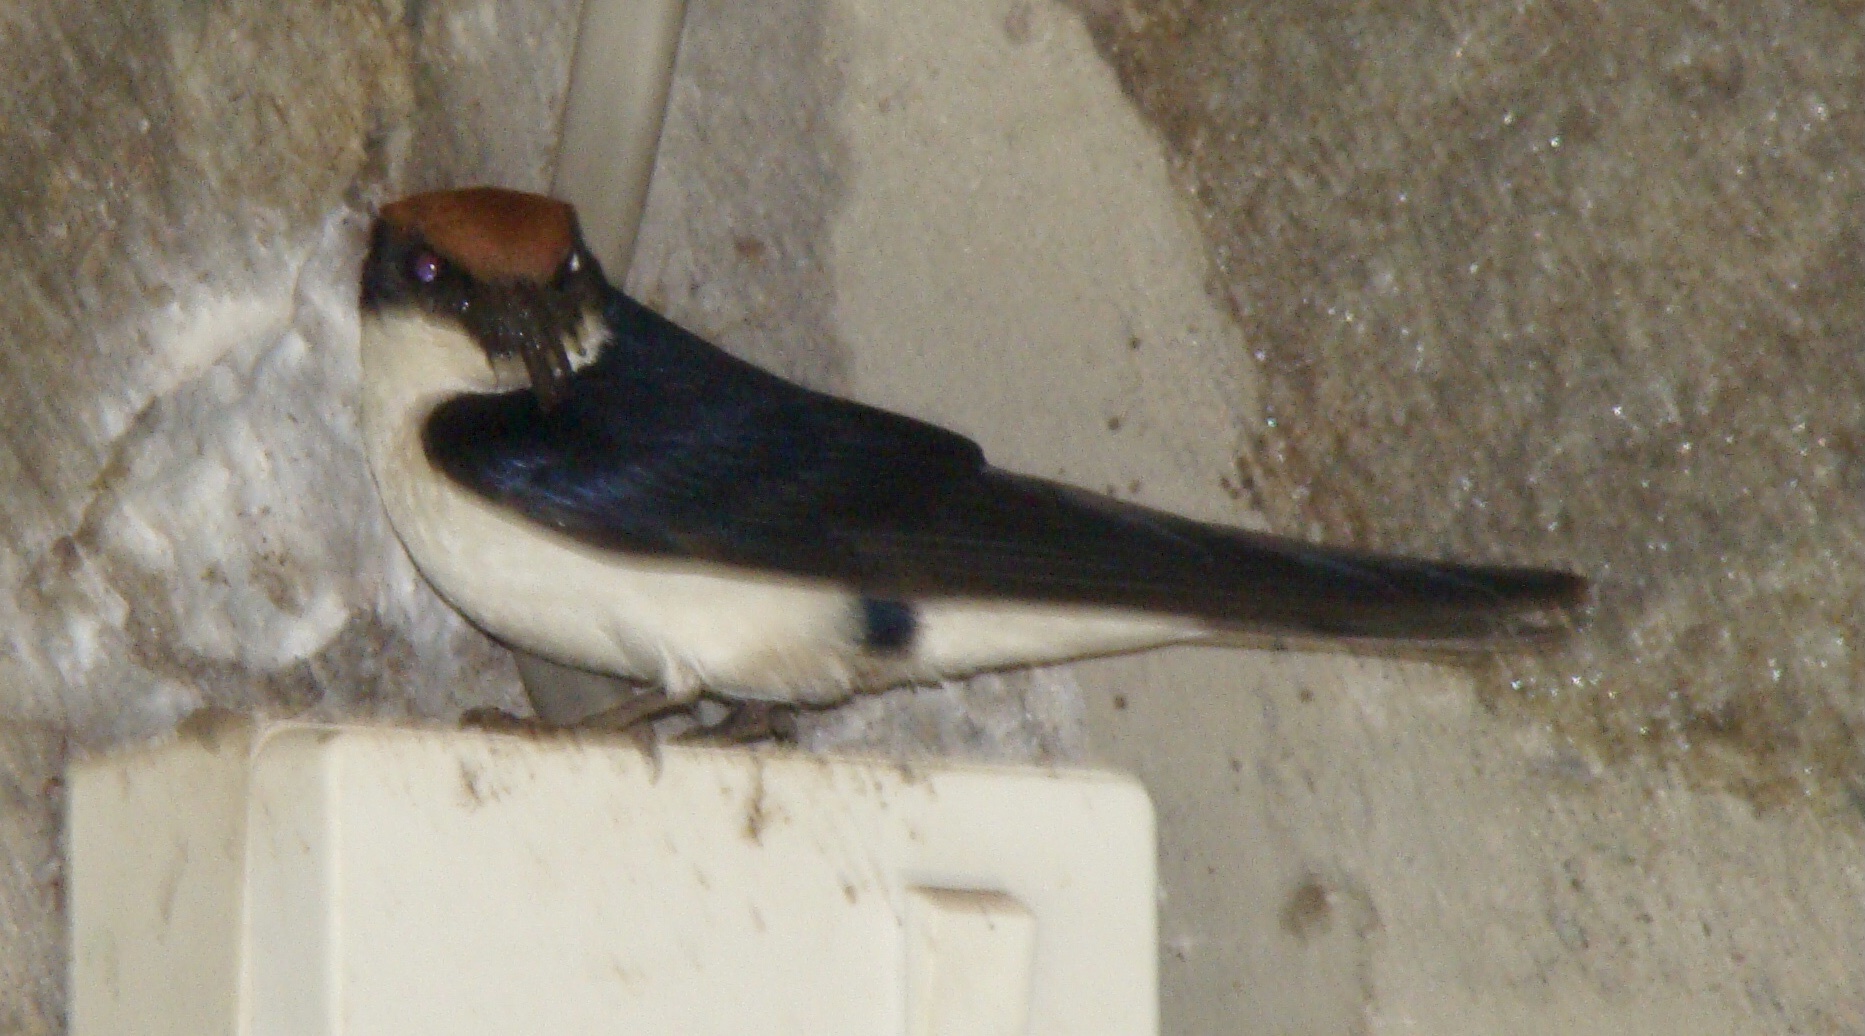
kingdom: Animalia
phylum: Chordata
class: Aves
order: Passeriformes
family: Hirundinidae
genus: Hirundo
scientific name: Hirundo smithii
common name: Wire-tailed swallow
